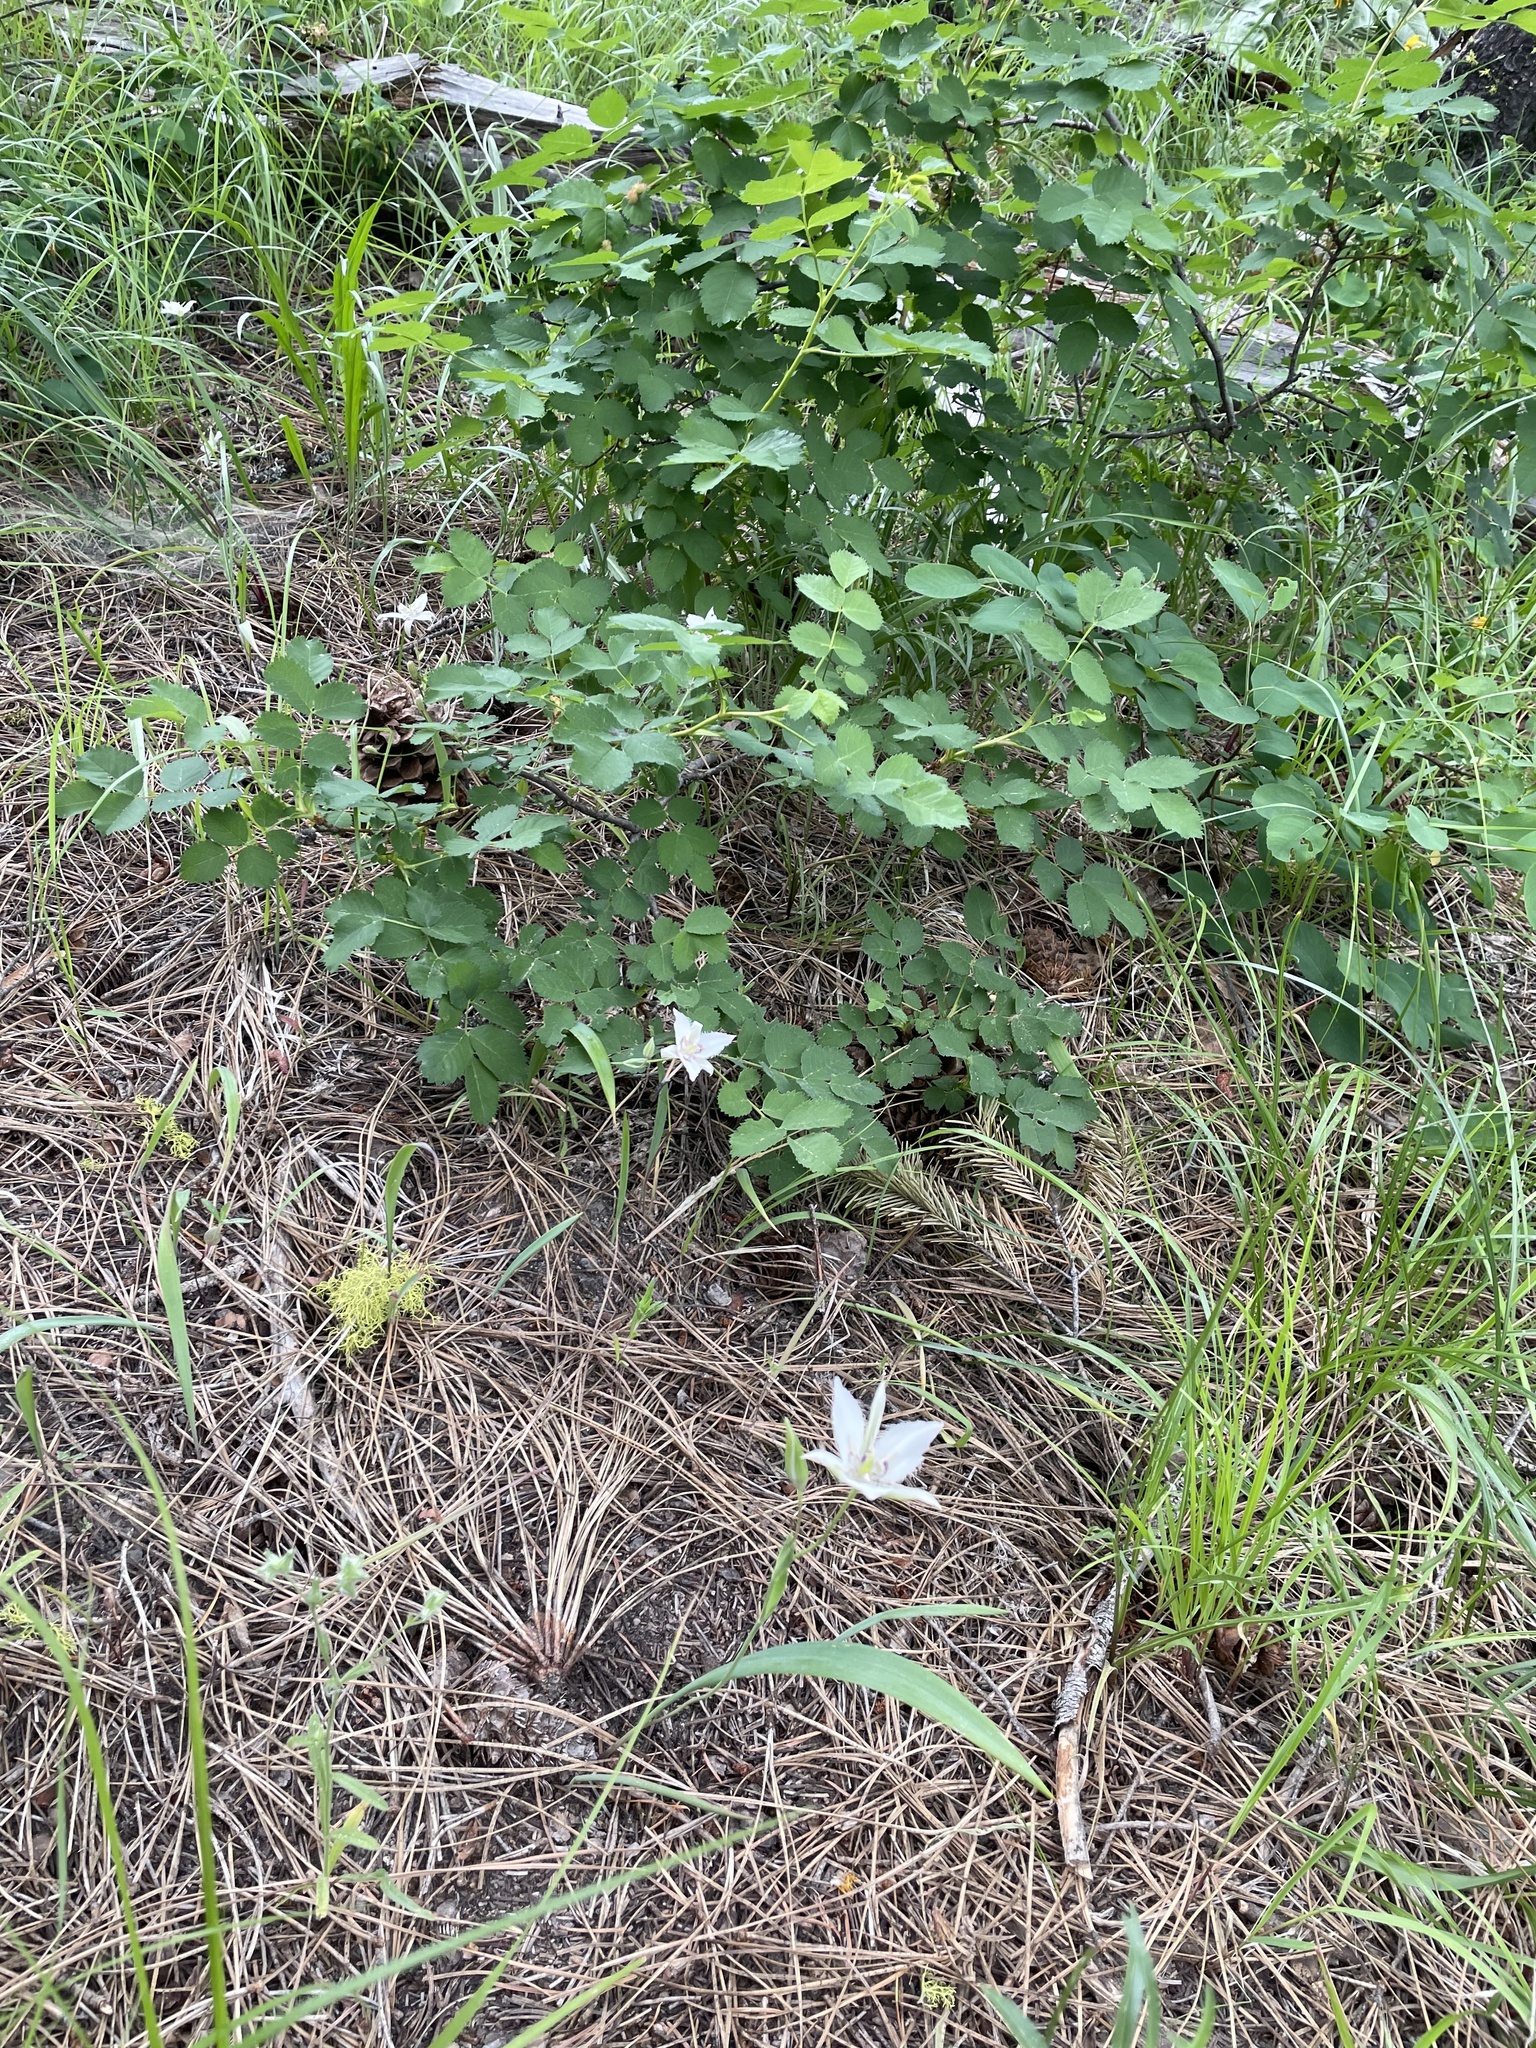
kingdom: Plantae
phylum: Tracheophyta
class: Liliopsida
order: Liliales
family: Liliaceae
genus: Calochortus
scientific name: Calochortus lyallii
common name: Lyall's mariposa lily
